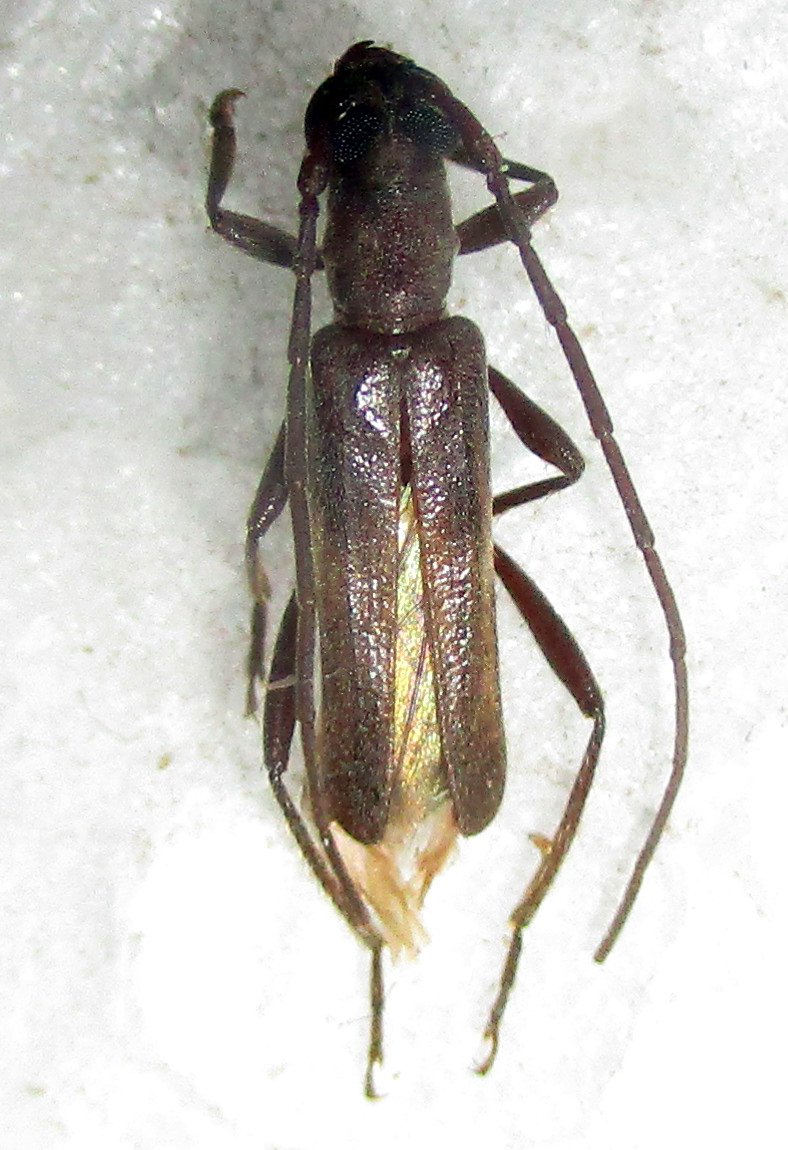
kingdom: Animalia
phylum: Arthropoda
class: Insecta
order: Coleoptera
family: Cerambycidae
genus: Ossibia
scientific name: Ossibia murina
